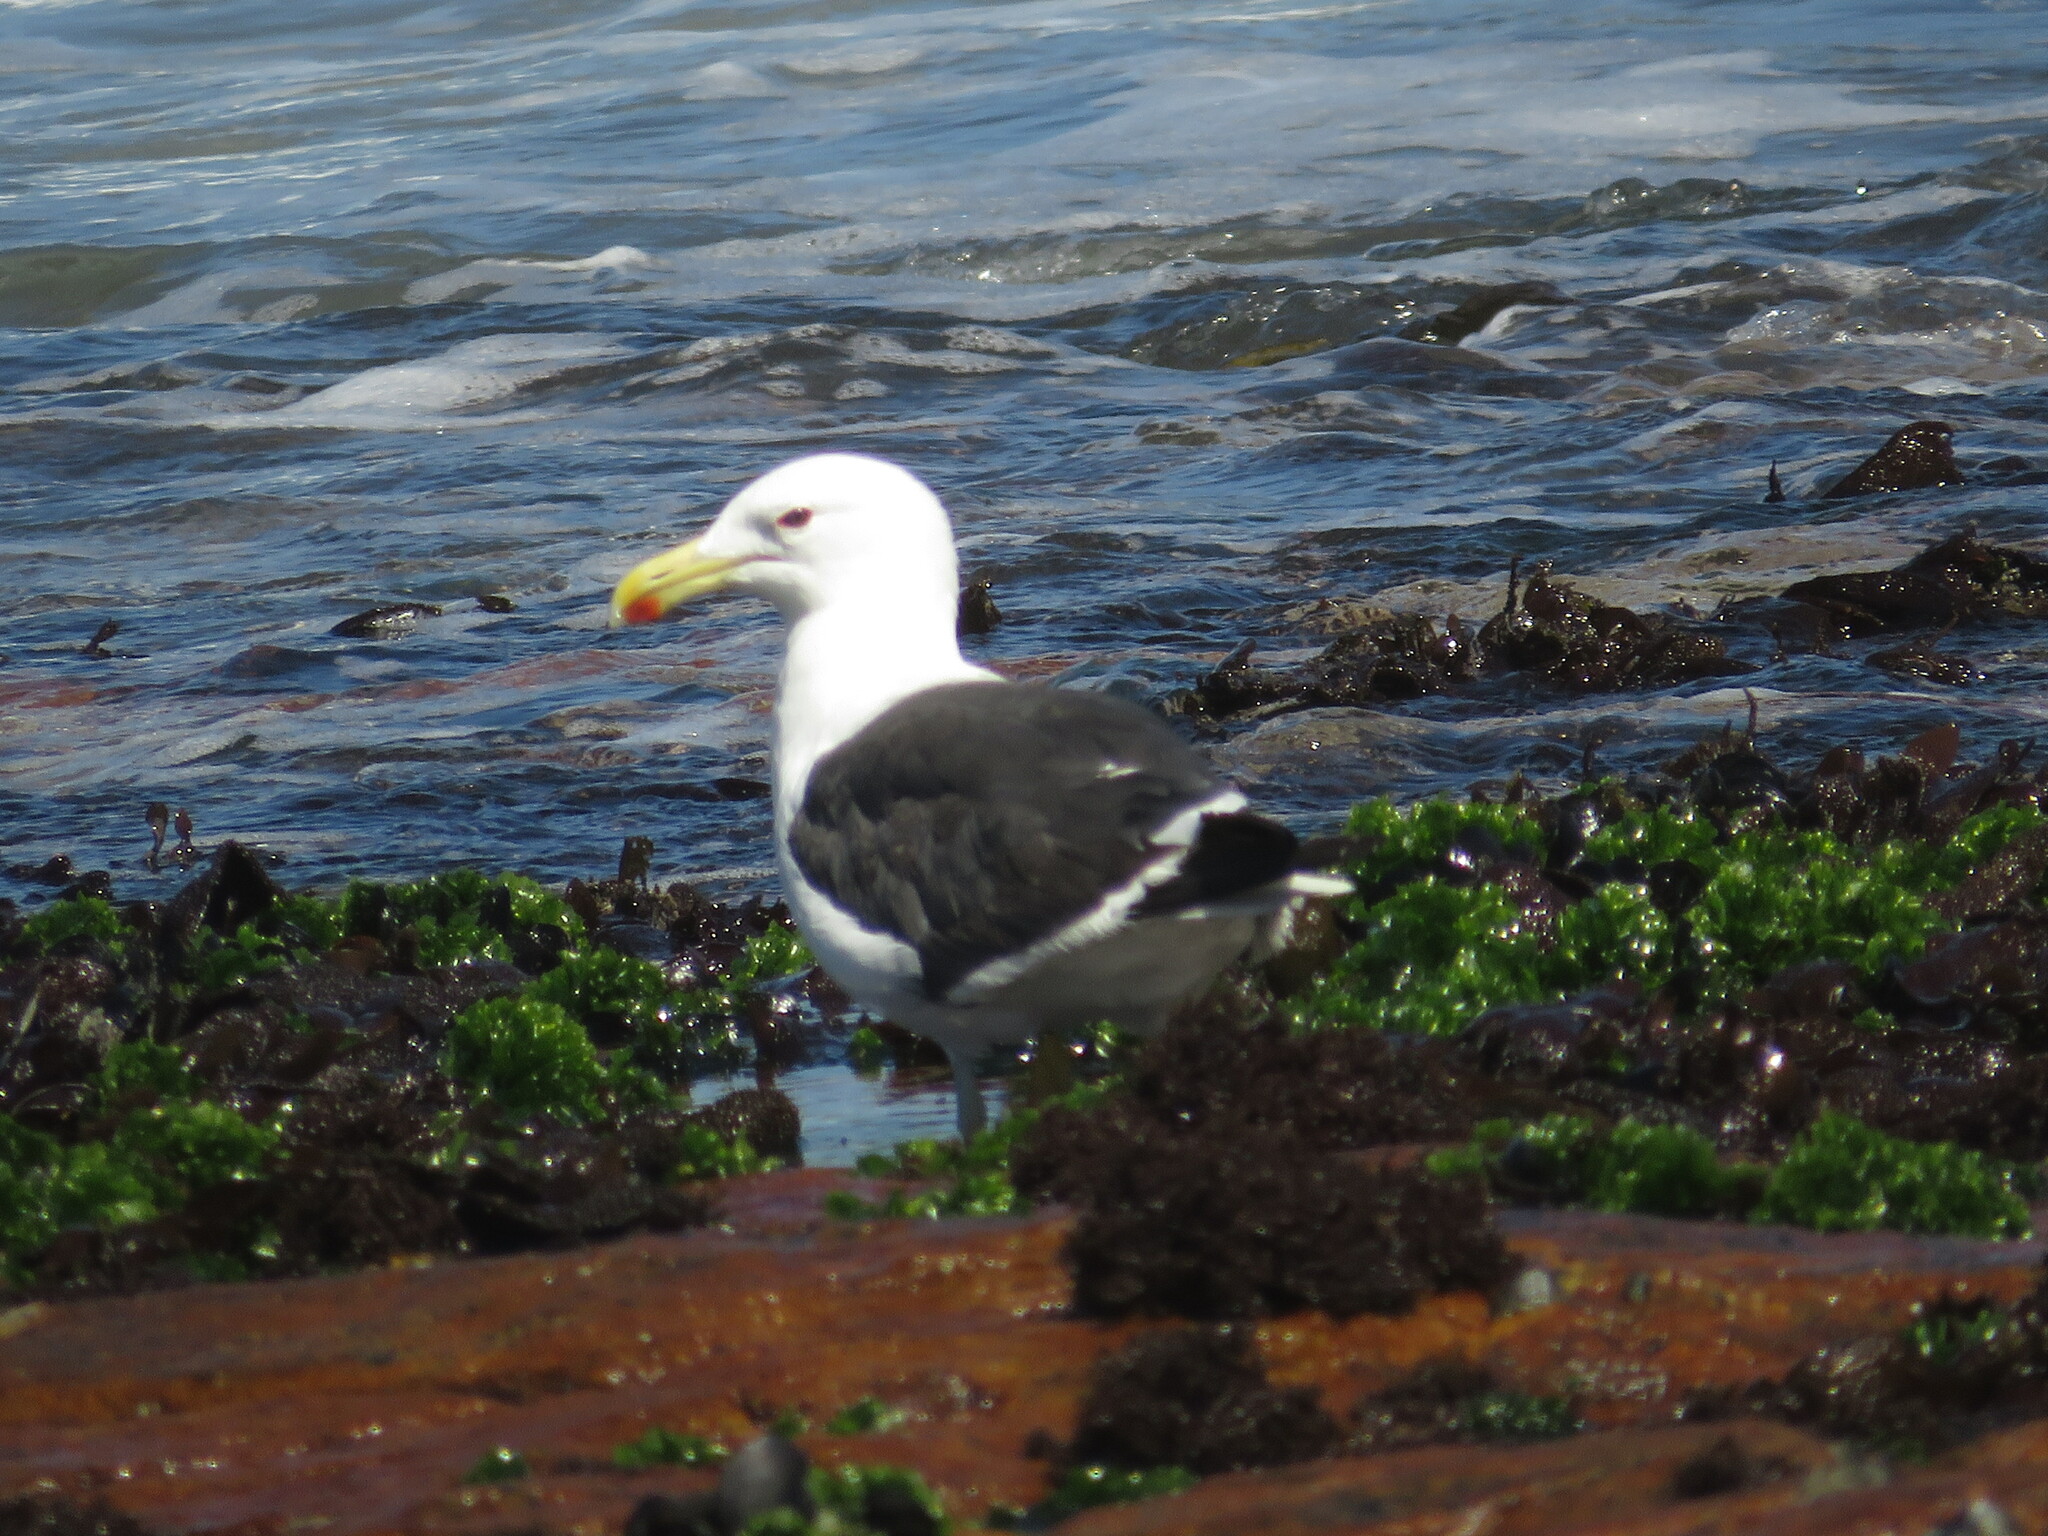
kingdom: Animalia
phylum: Chordata
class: Aves
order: Charadriiformes
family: Laridae
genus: Larus
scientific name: Larus dominicanus
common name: Kelp gull
